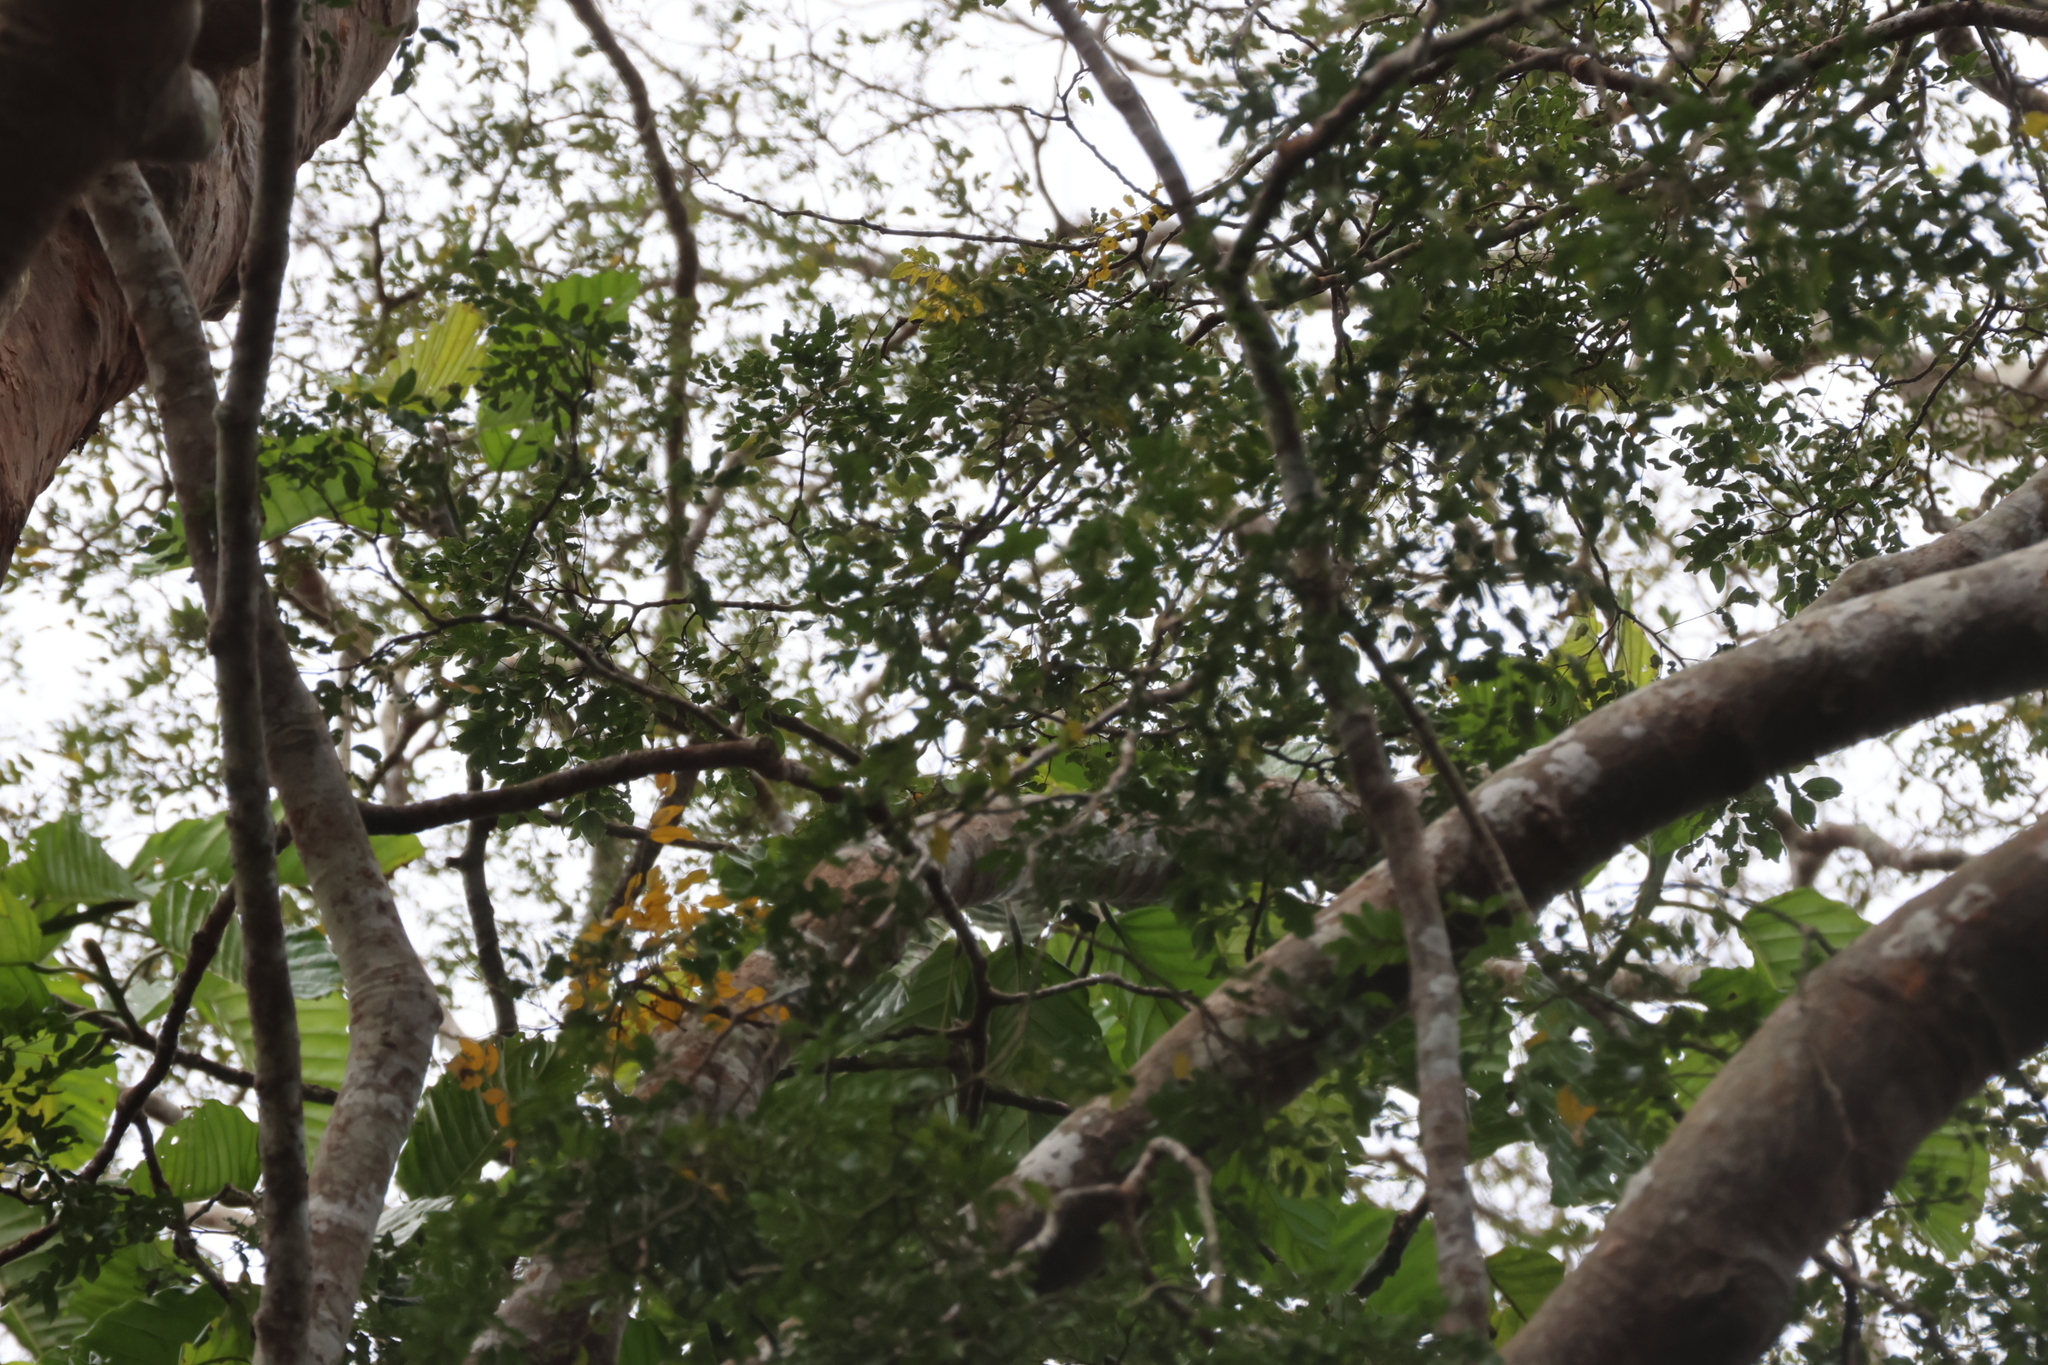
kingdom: Plantae
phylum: Tracheophyta
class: Magnoliopsida
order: Fabales
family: Fabaceae
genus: Koompassia
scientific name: Koompassia excelsa
